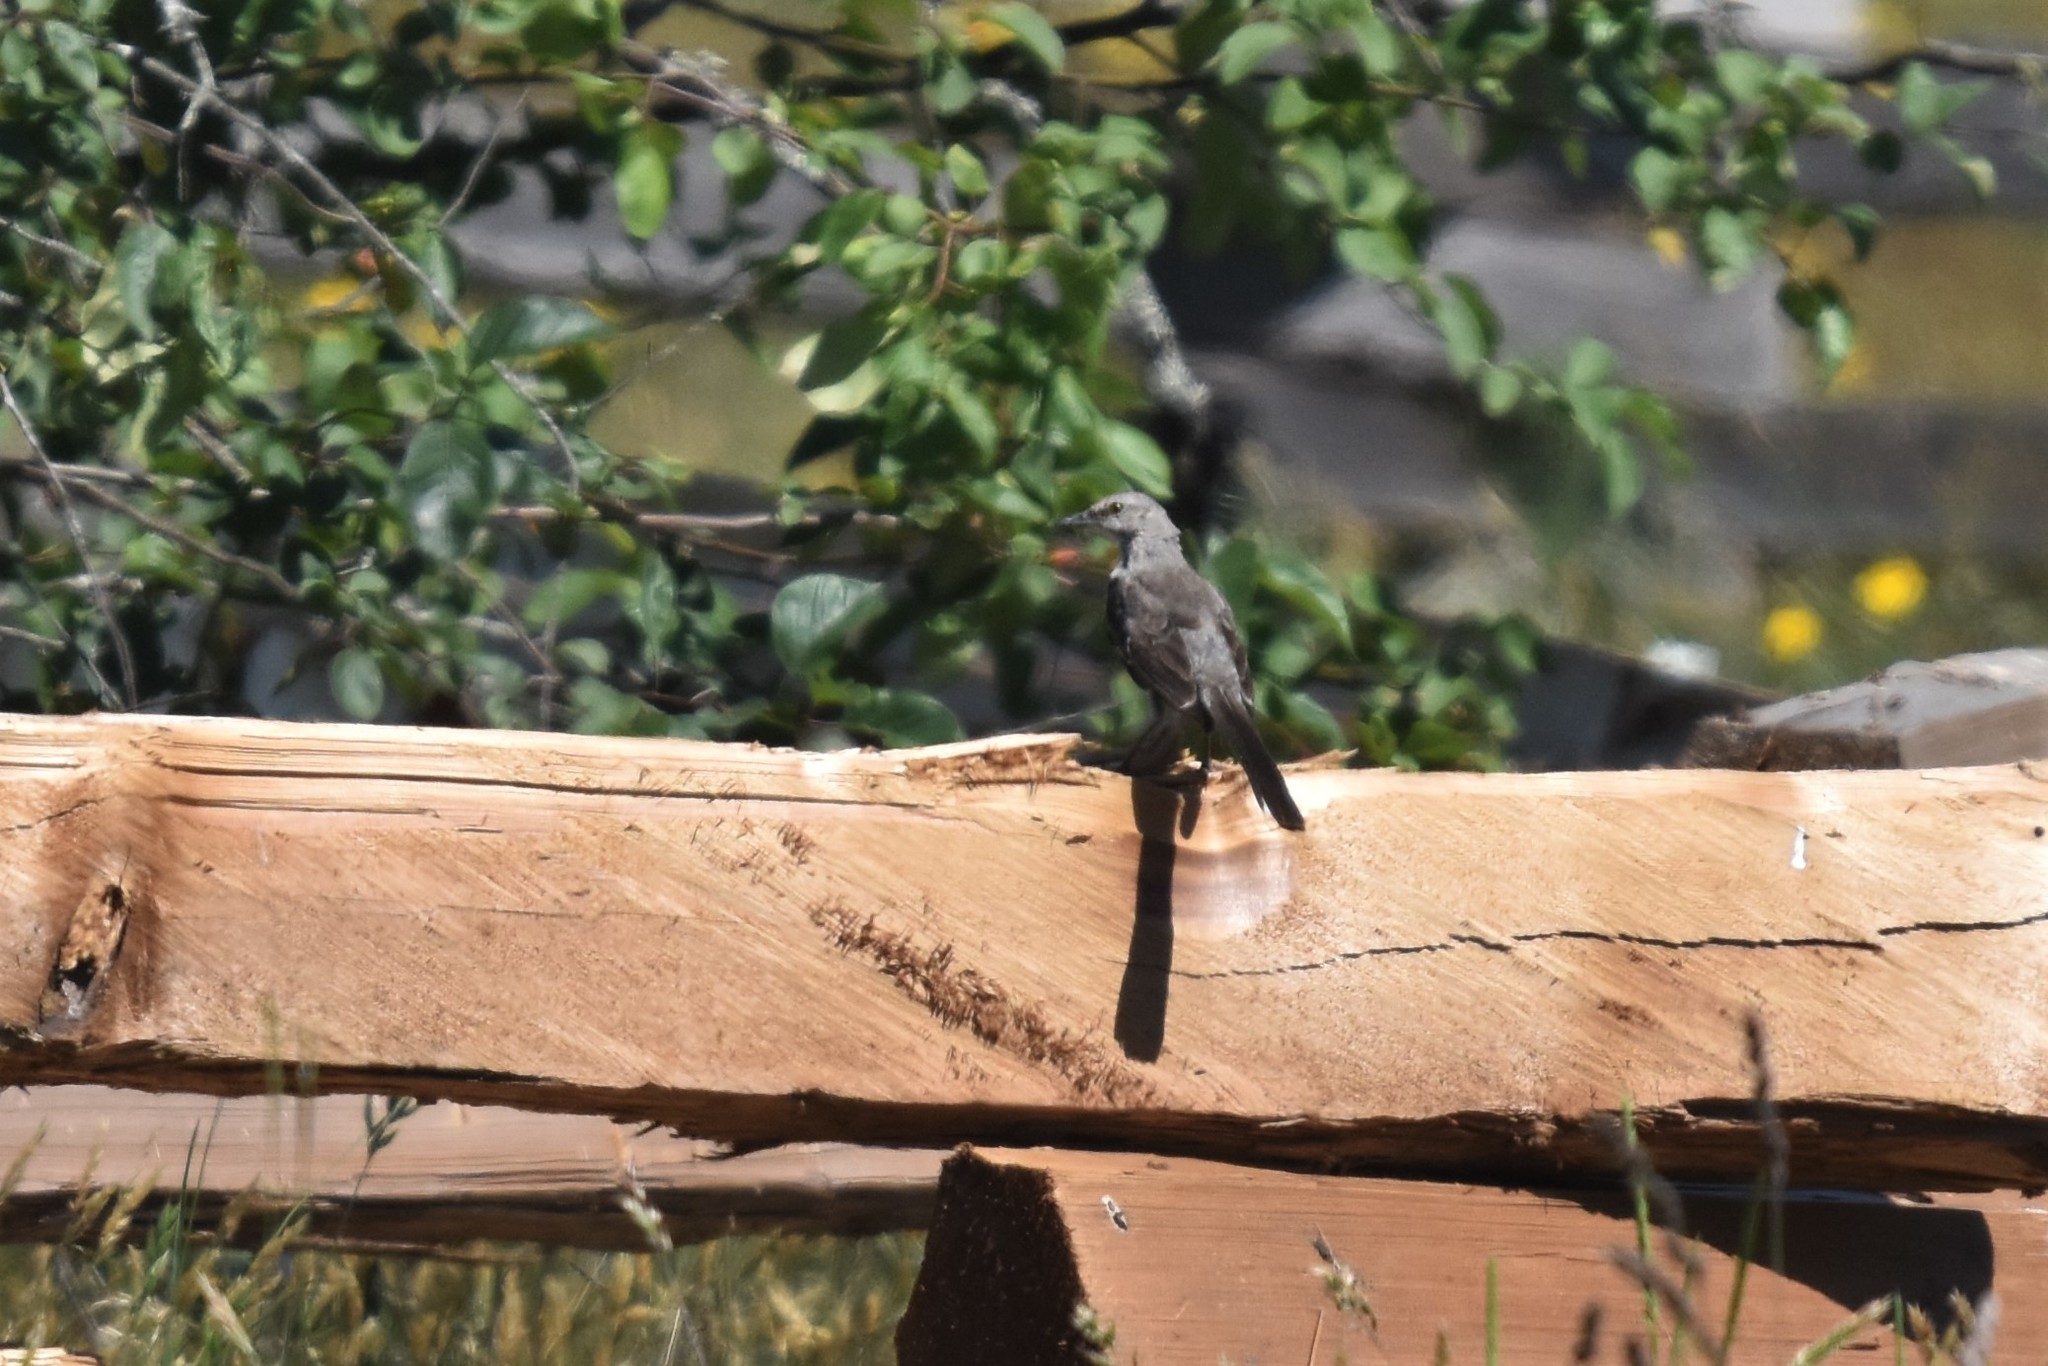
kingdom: Animalia
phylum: Chordata
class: Aves
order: Passeriformes
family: Mimidae
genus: Mimus
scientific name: Mimus polyglottos
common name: Northern mockingbird
